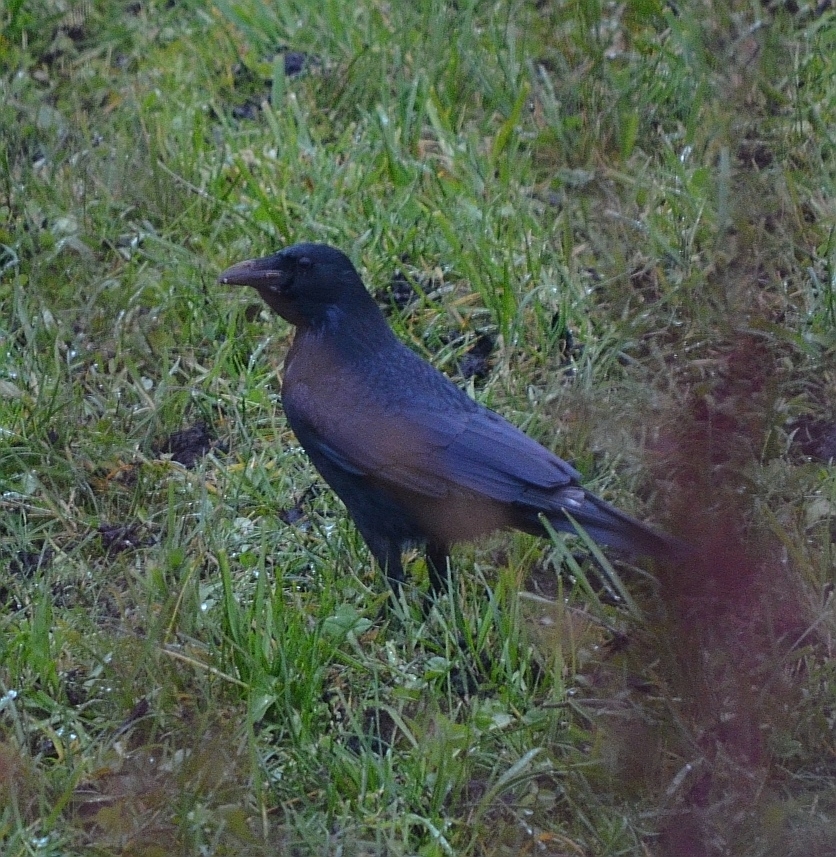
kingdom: Animalia
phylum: Chordata
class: Aves
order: Passeriformes
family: Corvidae
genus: Corvus
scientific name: Corvus corone
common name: Carrion crow
